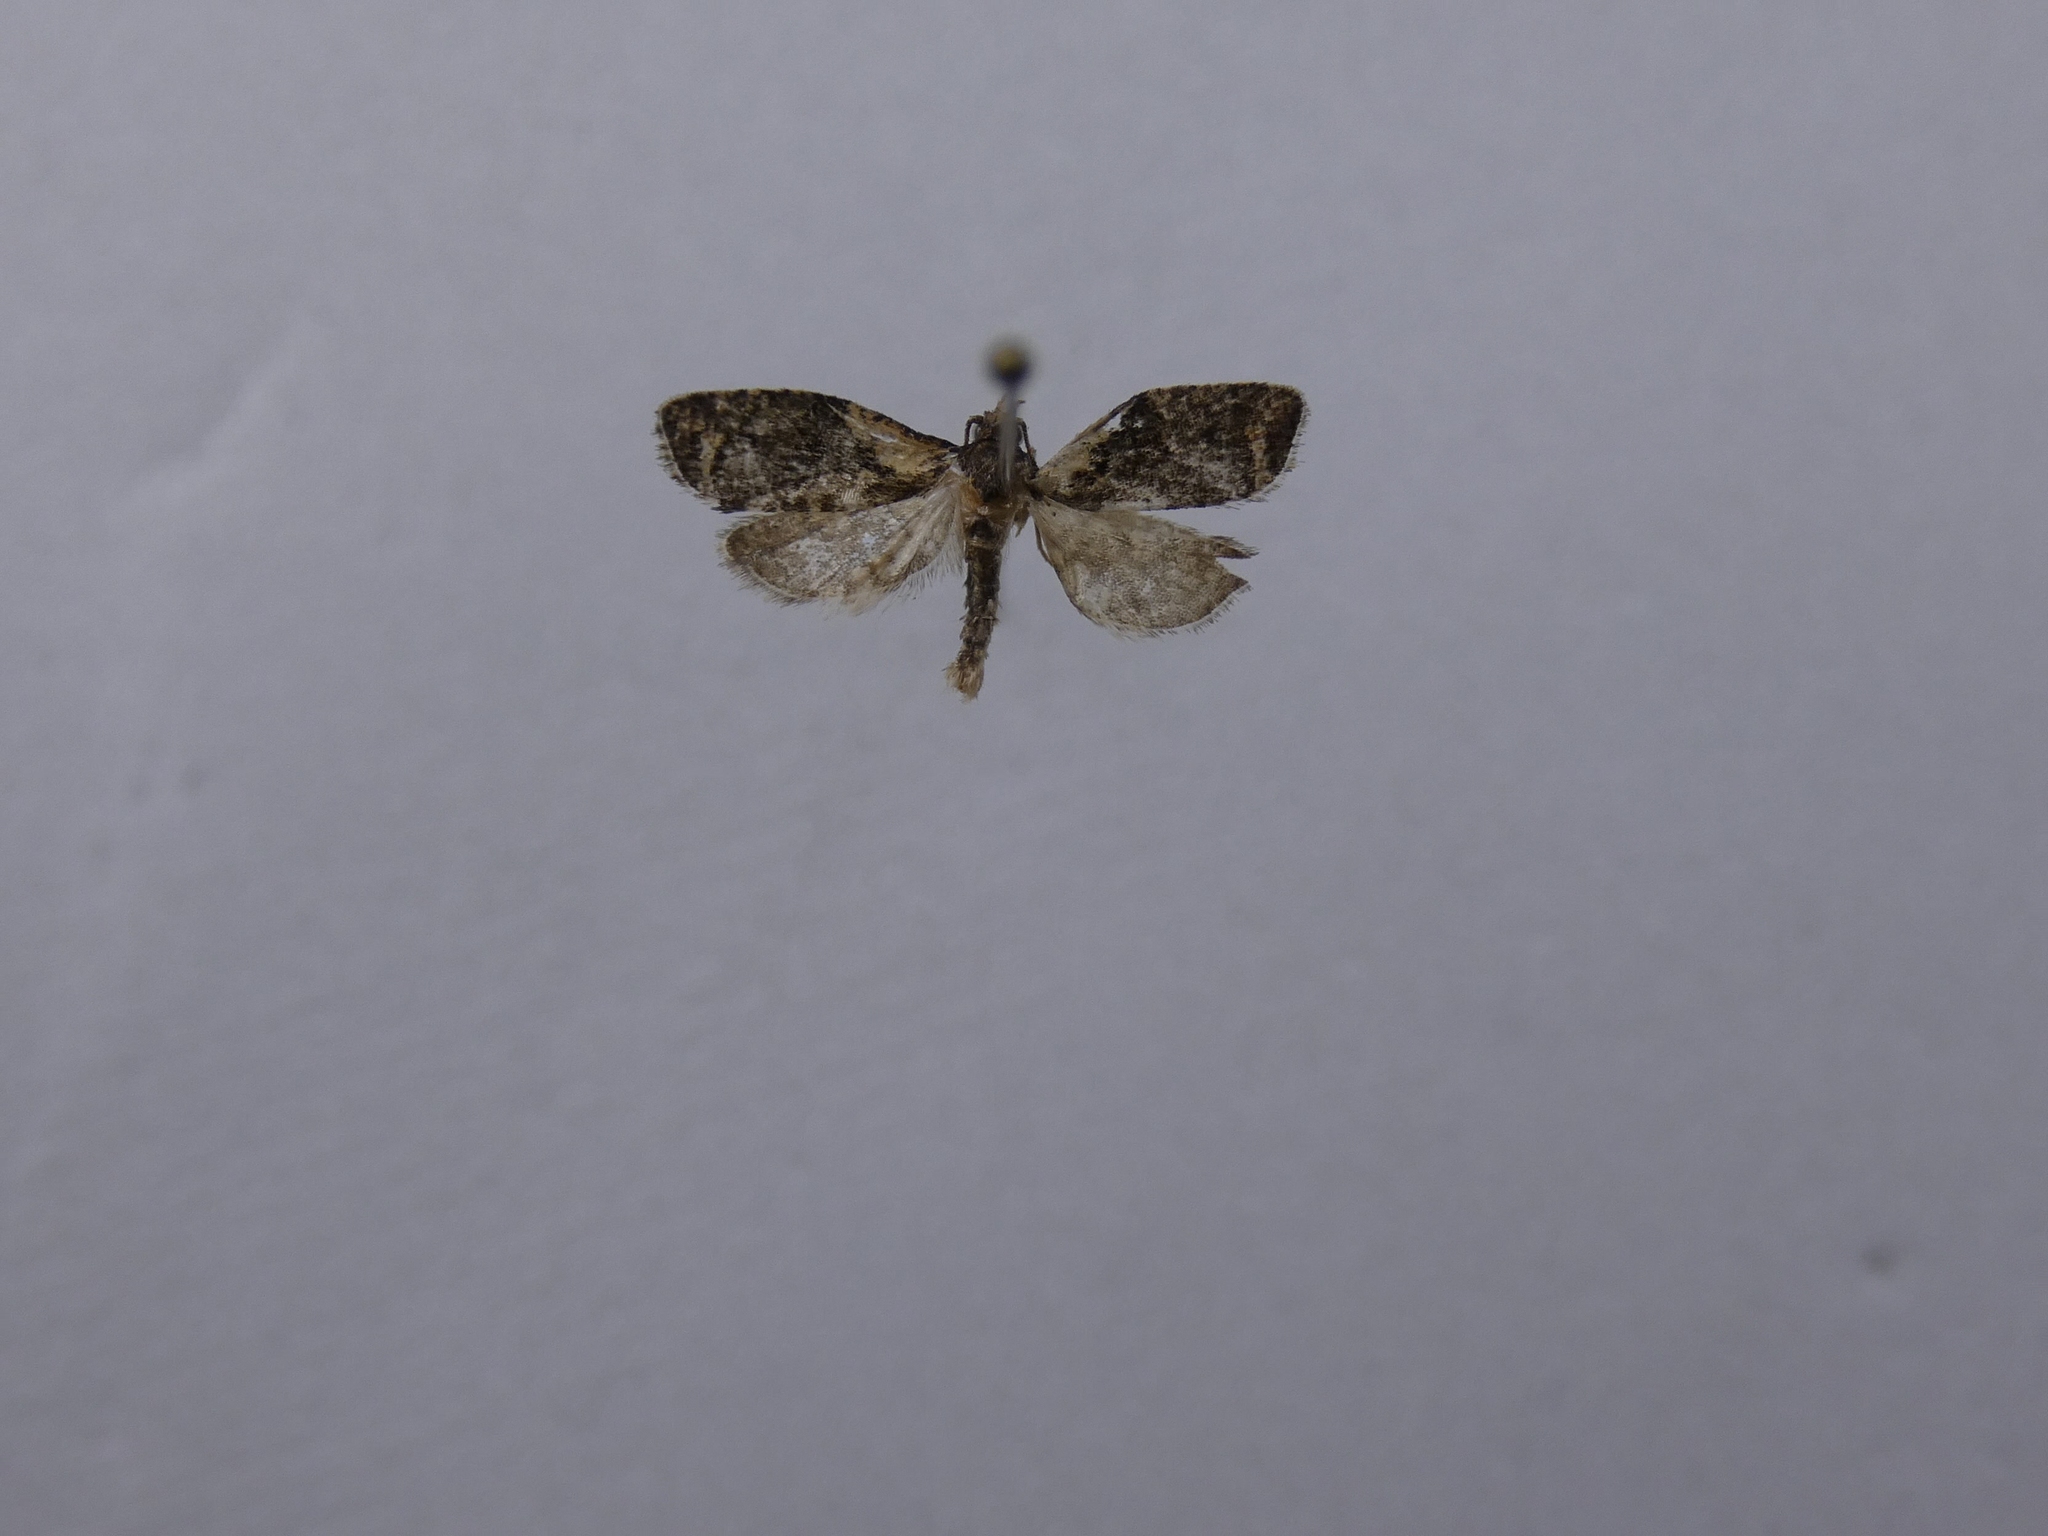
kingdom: Animalia
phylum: Arthropoda
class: Insecta
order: Lepidoptera
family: Tortricidae
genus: Capua
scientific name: Capua intractana
